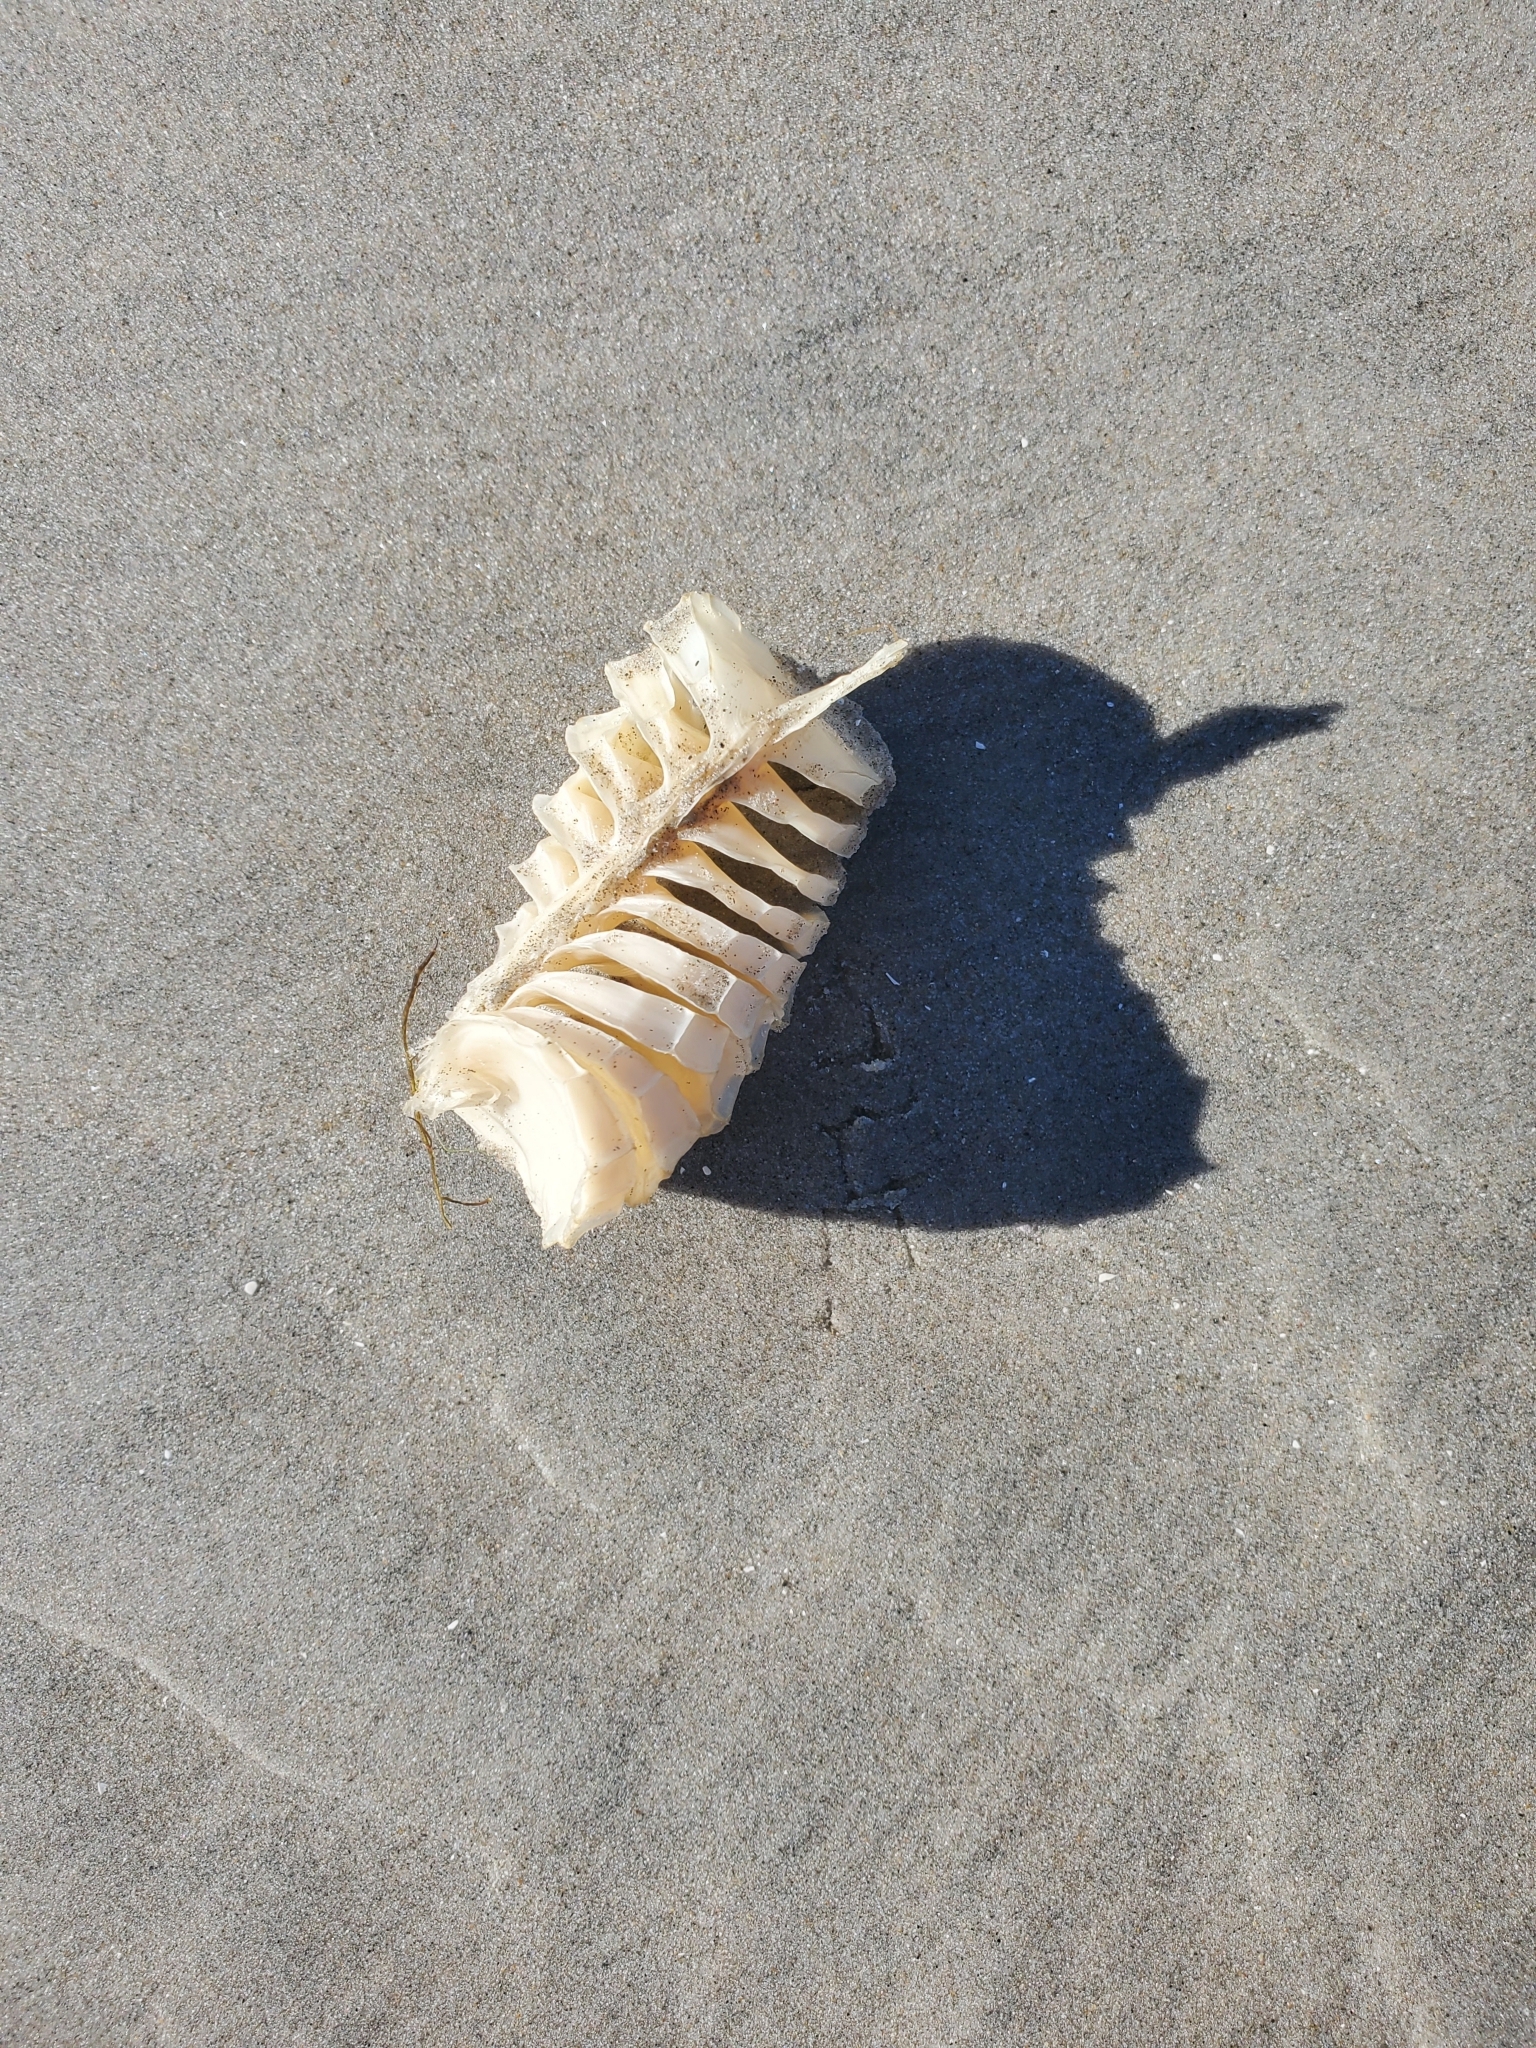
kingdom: Animalia
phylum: Mollusca
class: Gastropoda
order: Neogastropoda
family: Busyconidae
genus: Busycon
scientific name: Busycon carica
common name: Knobbed whelk
